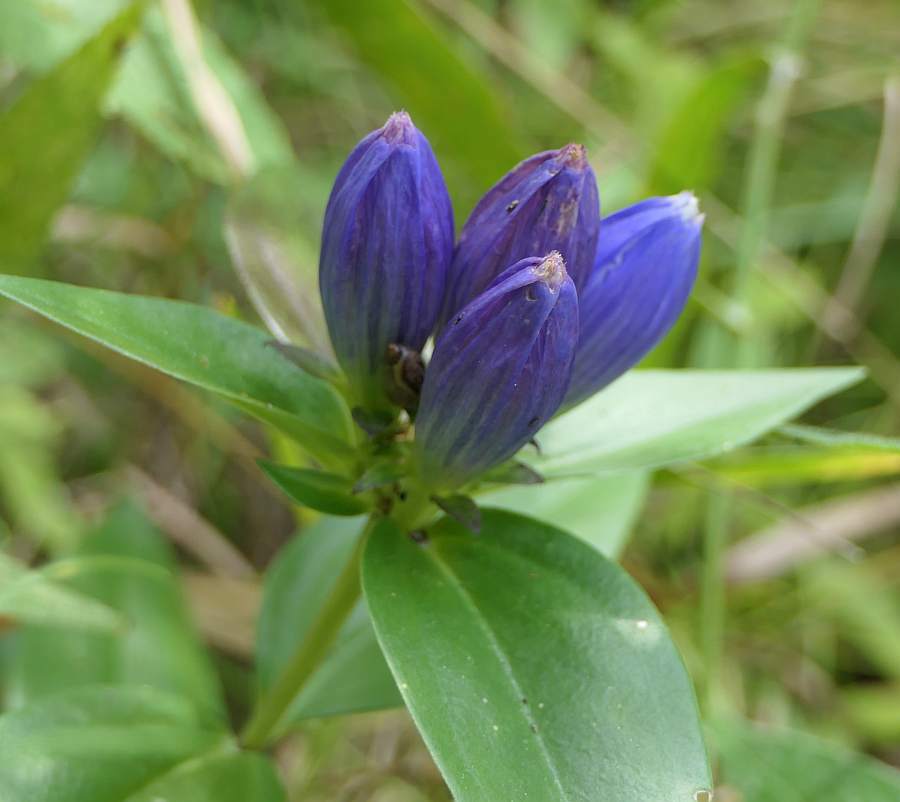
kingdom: Plantae
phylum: Tracheophyta
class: Magnoliopsida
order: Gentianales
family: Gentianaceae
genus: Gentiana
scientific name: Gentiana andrewsii
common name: Bottle gentian
